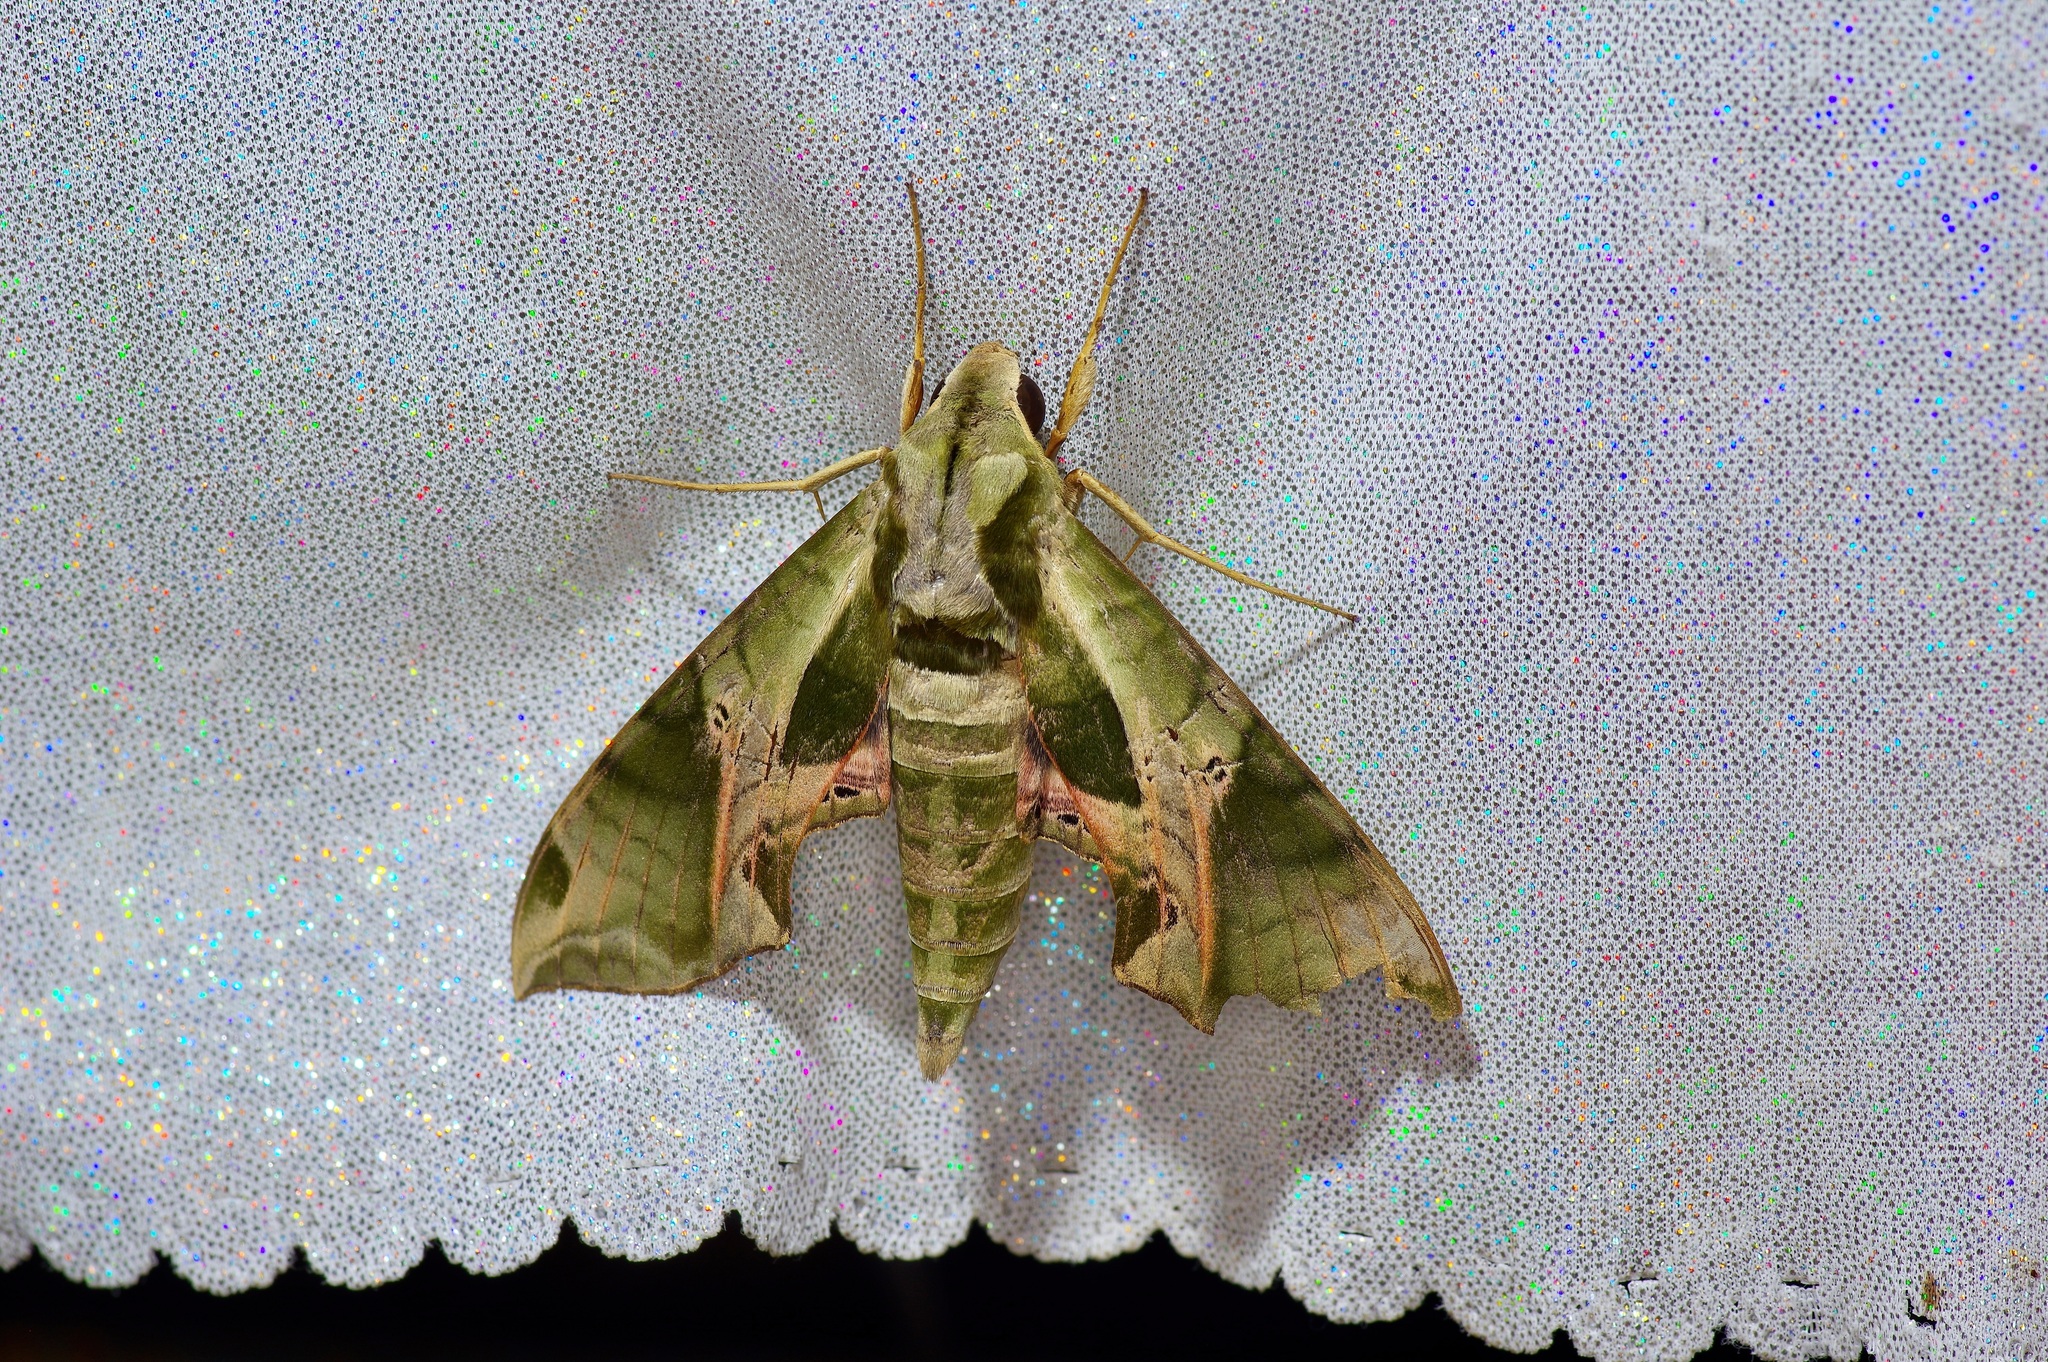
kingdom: Animalia
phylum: Arthropoda
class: Insecta
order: Lepidoptera
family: Sphingidae
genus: Eumorpha
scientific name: Eumorpha pandorus
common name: Pandora sphinx
